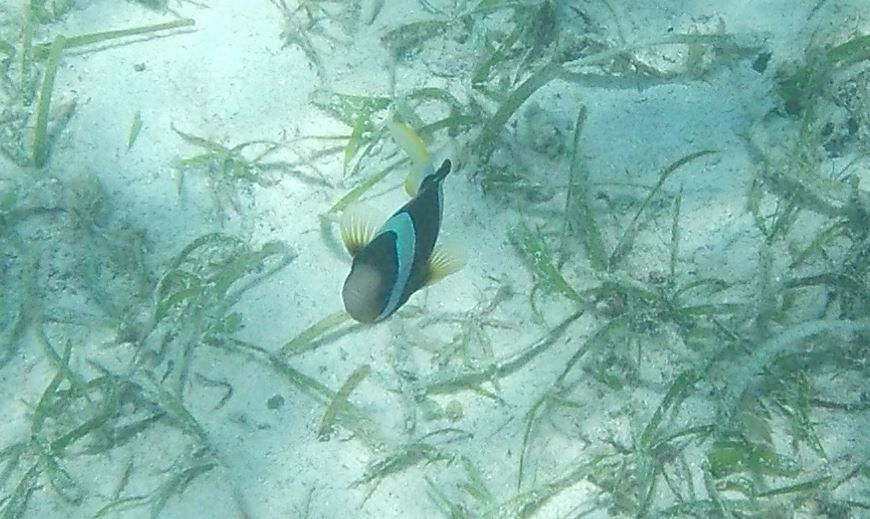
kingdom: Animalia
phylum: Chordata
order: Perciformes
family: Pomacentridae
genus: Amphiprion
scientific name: Amphiprion clarkii
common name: Clark's anemonefish
